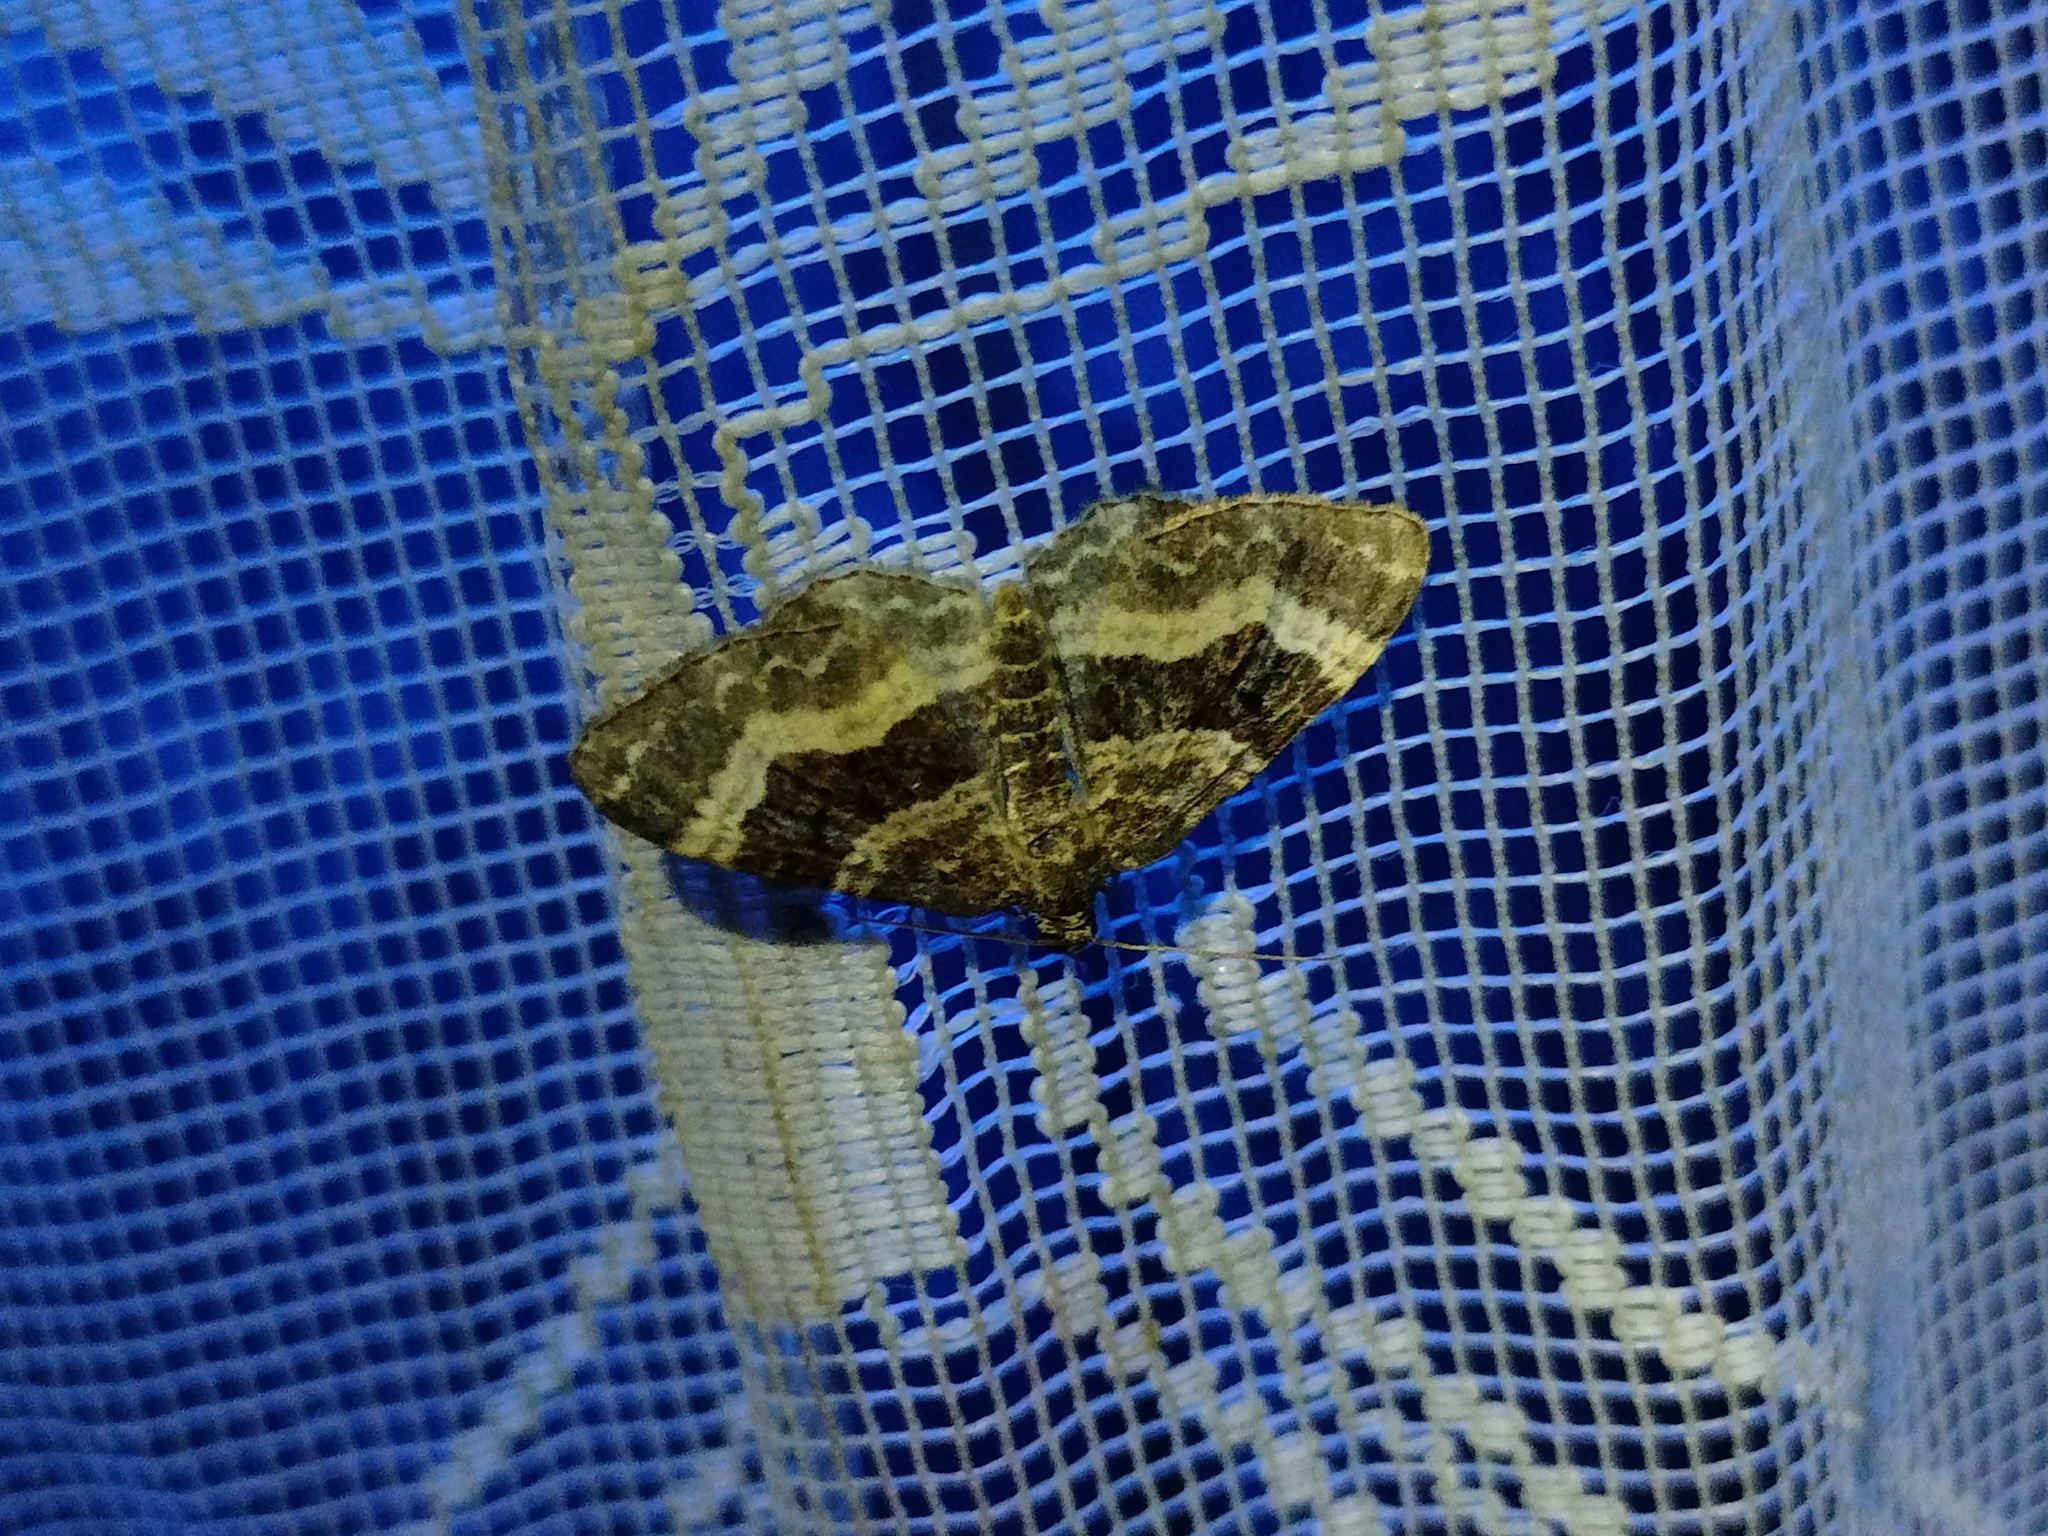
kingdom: Animalia
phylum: Arthropoda
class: Insecta
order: Lepidoptera
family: Geometridae
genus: Epirrhoe
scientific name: Epirrhoe alternata
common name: Common carpet
